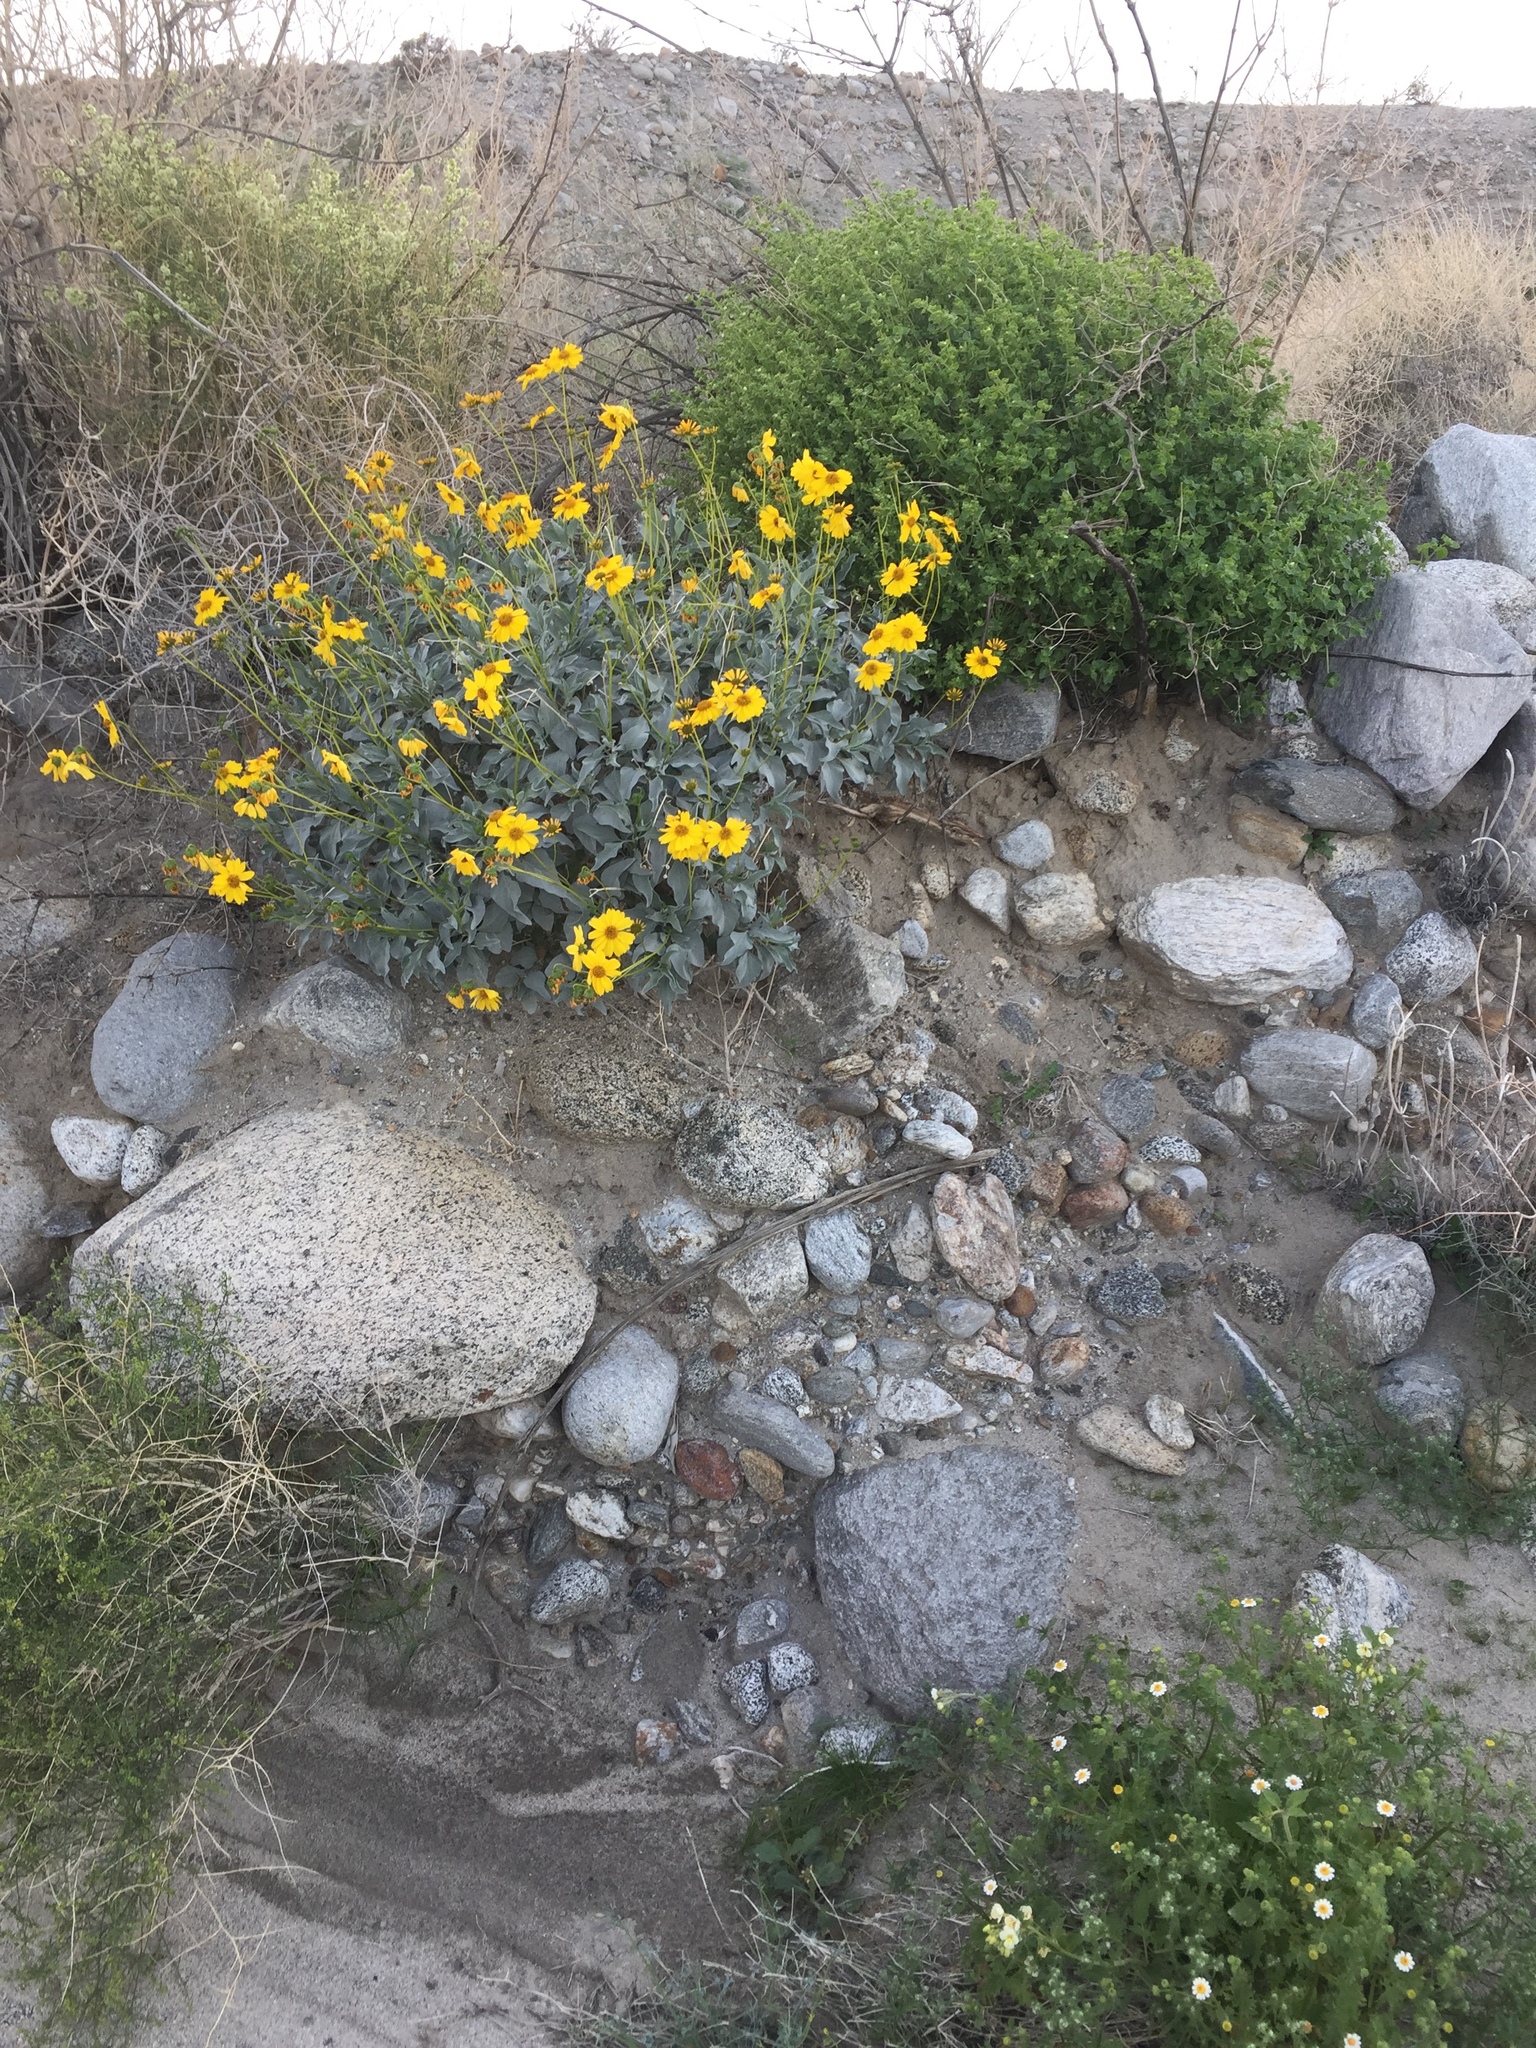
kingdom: Plantae
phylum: Tracheophyta
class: Magnoliopsida
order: Asterales
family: Asteraceae
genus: Encelia
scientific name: Encelia farinosa
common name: Brittlebush
